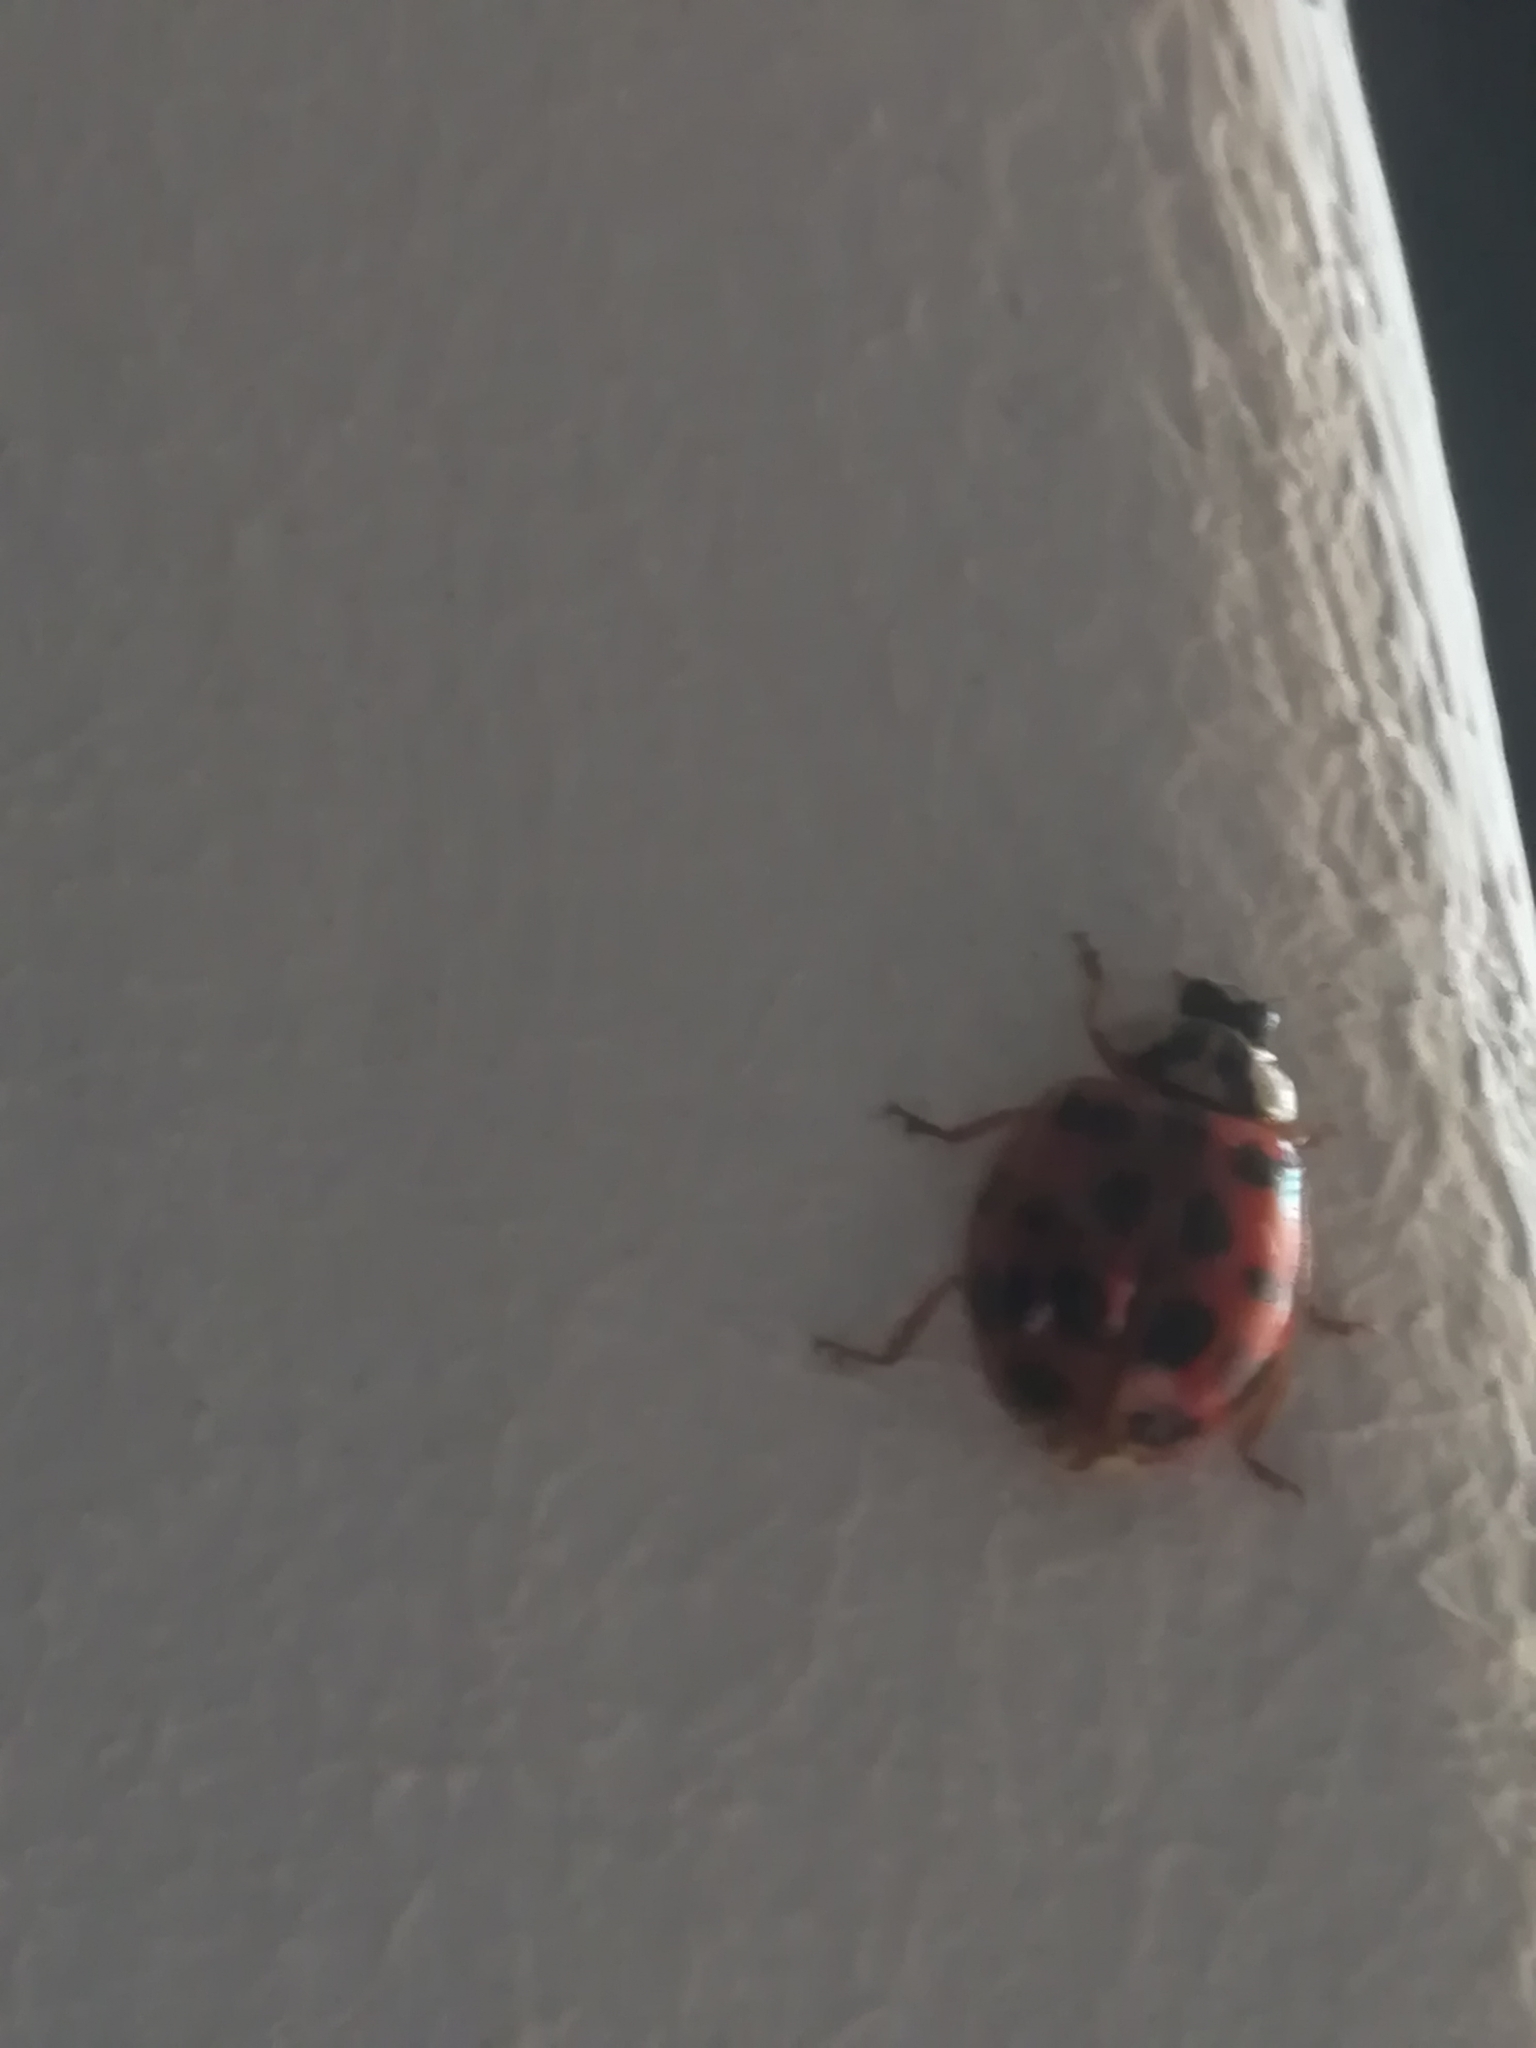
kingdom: Animalia
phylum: Arthropoda
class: Insecta
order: Coleoptera
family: Coccinellidae
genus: Harmonia
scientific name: Harmonia axyridis
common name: Harlequin ladybird
